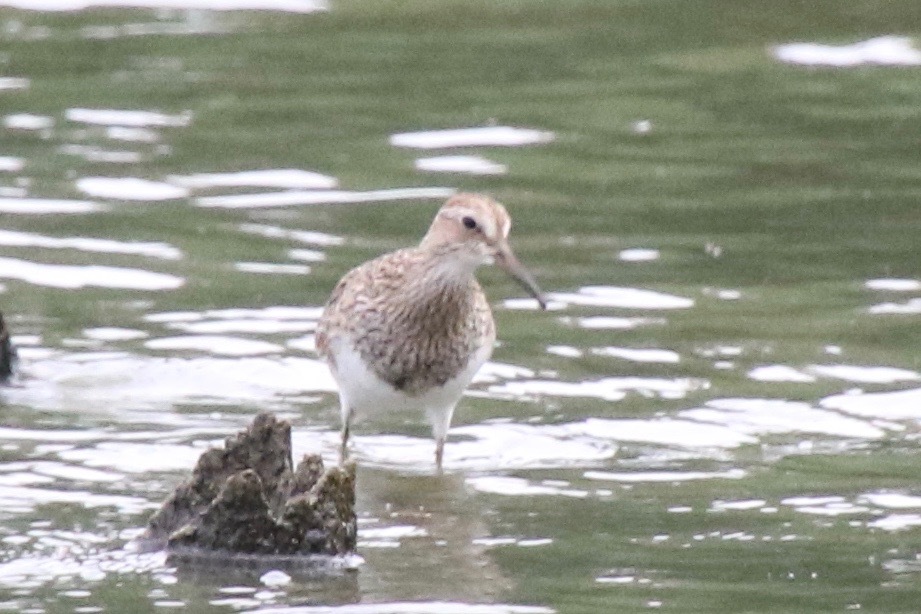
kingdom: Animalia
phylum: Chordata
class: Aves
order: Charadriiformes
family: Scolopacidae
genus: Calidris
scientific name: Calidris melanotos
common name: Pectoral sandpiper
